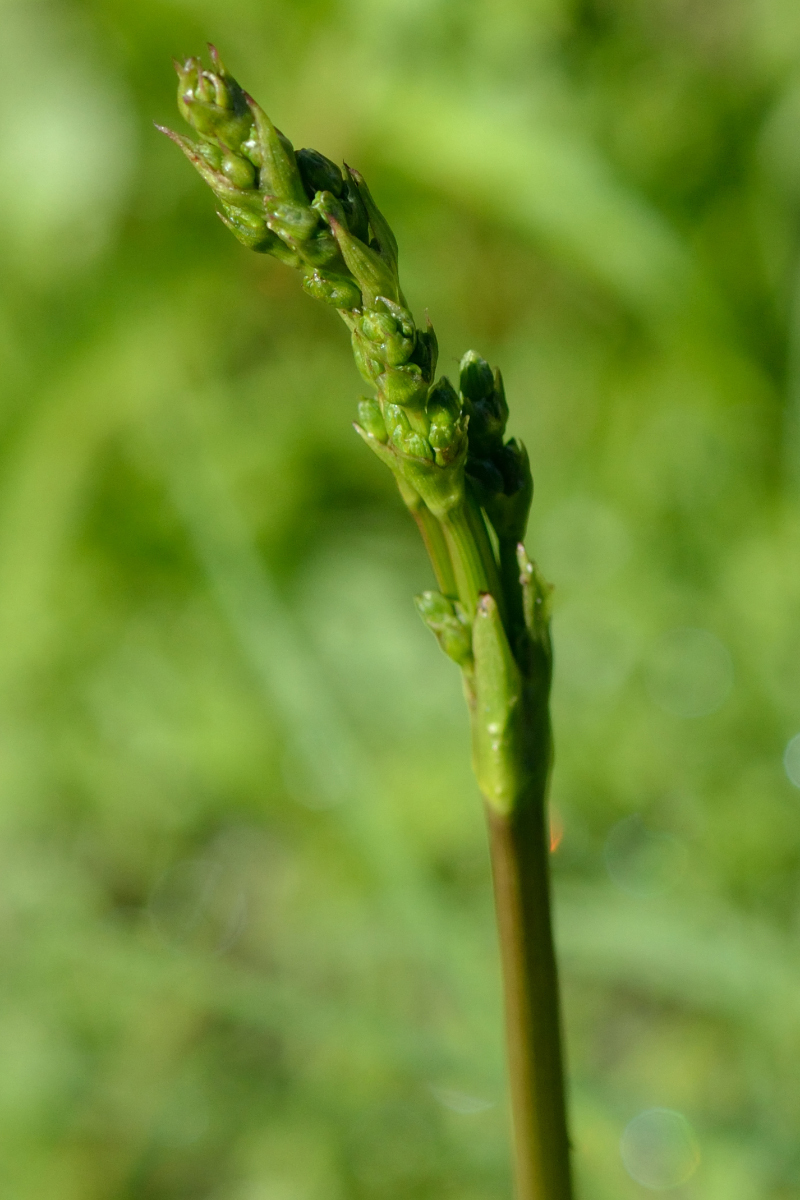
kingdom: Plantae
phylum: Tracheophyta
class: Liliopsida
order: Alismatales
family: Alismataceae
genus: Alisma
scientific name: Alisma plantago-aquatica
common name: Water-plantain
